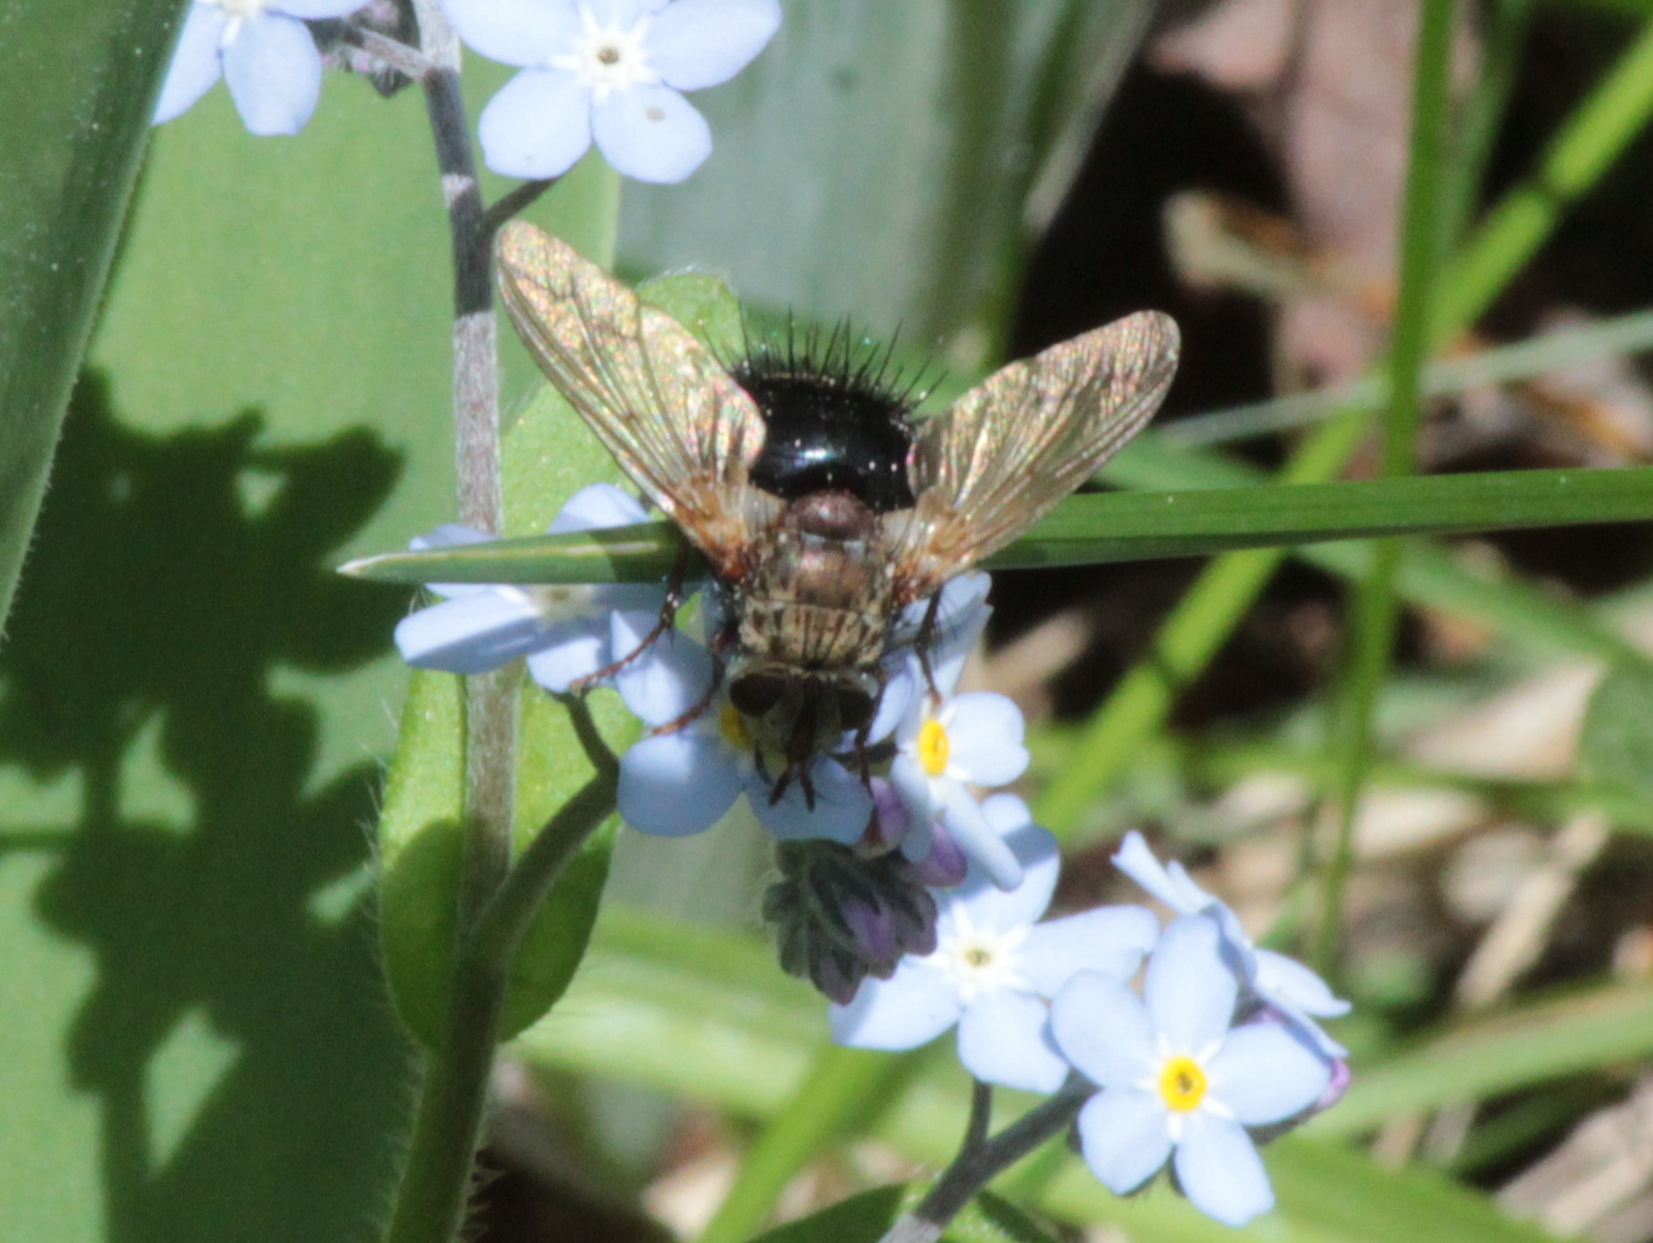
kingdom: Animalia
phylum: Arthropoda
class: Insecta
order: Diptera
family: Tachinidae
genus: Epalpus
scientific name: Epalpus signifer
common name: Early tachinid fly
